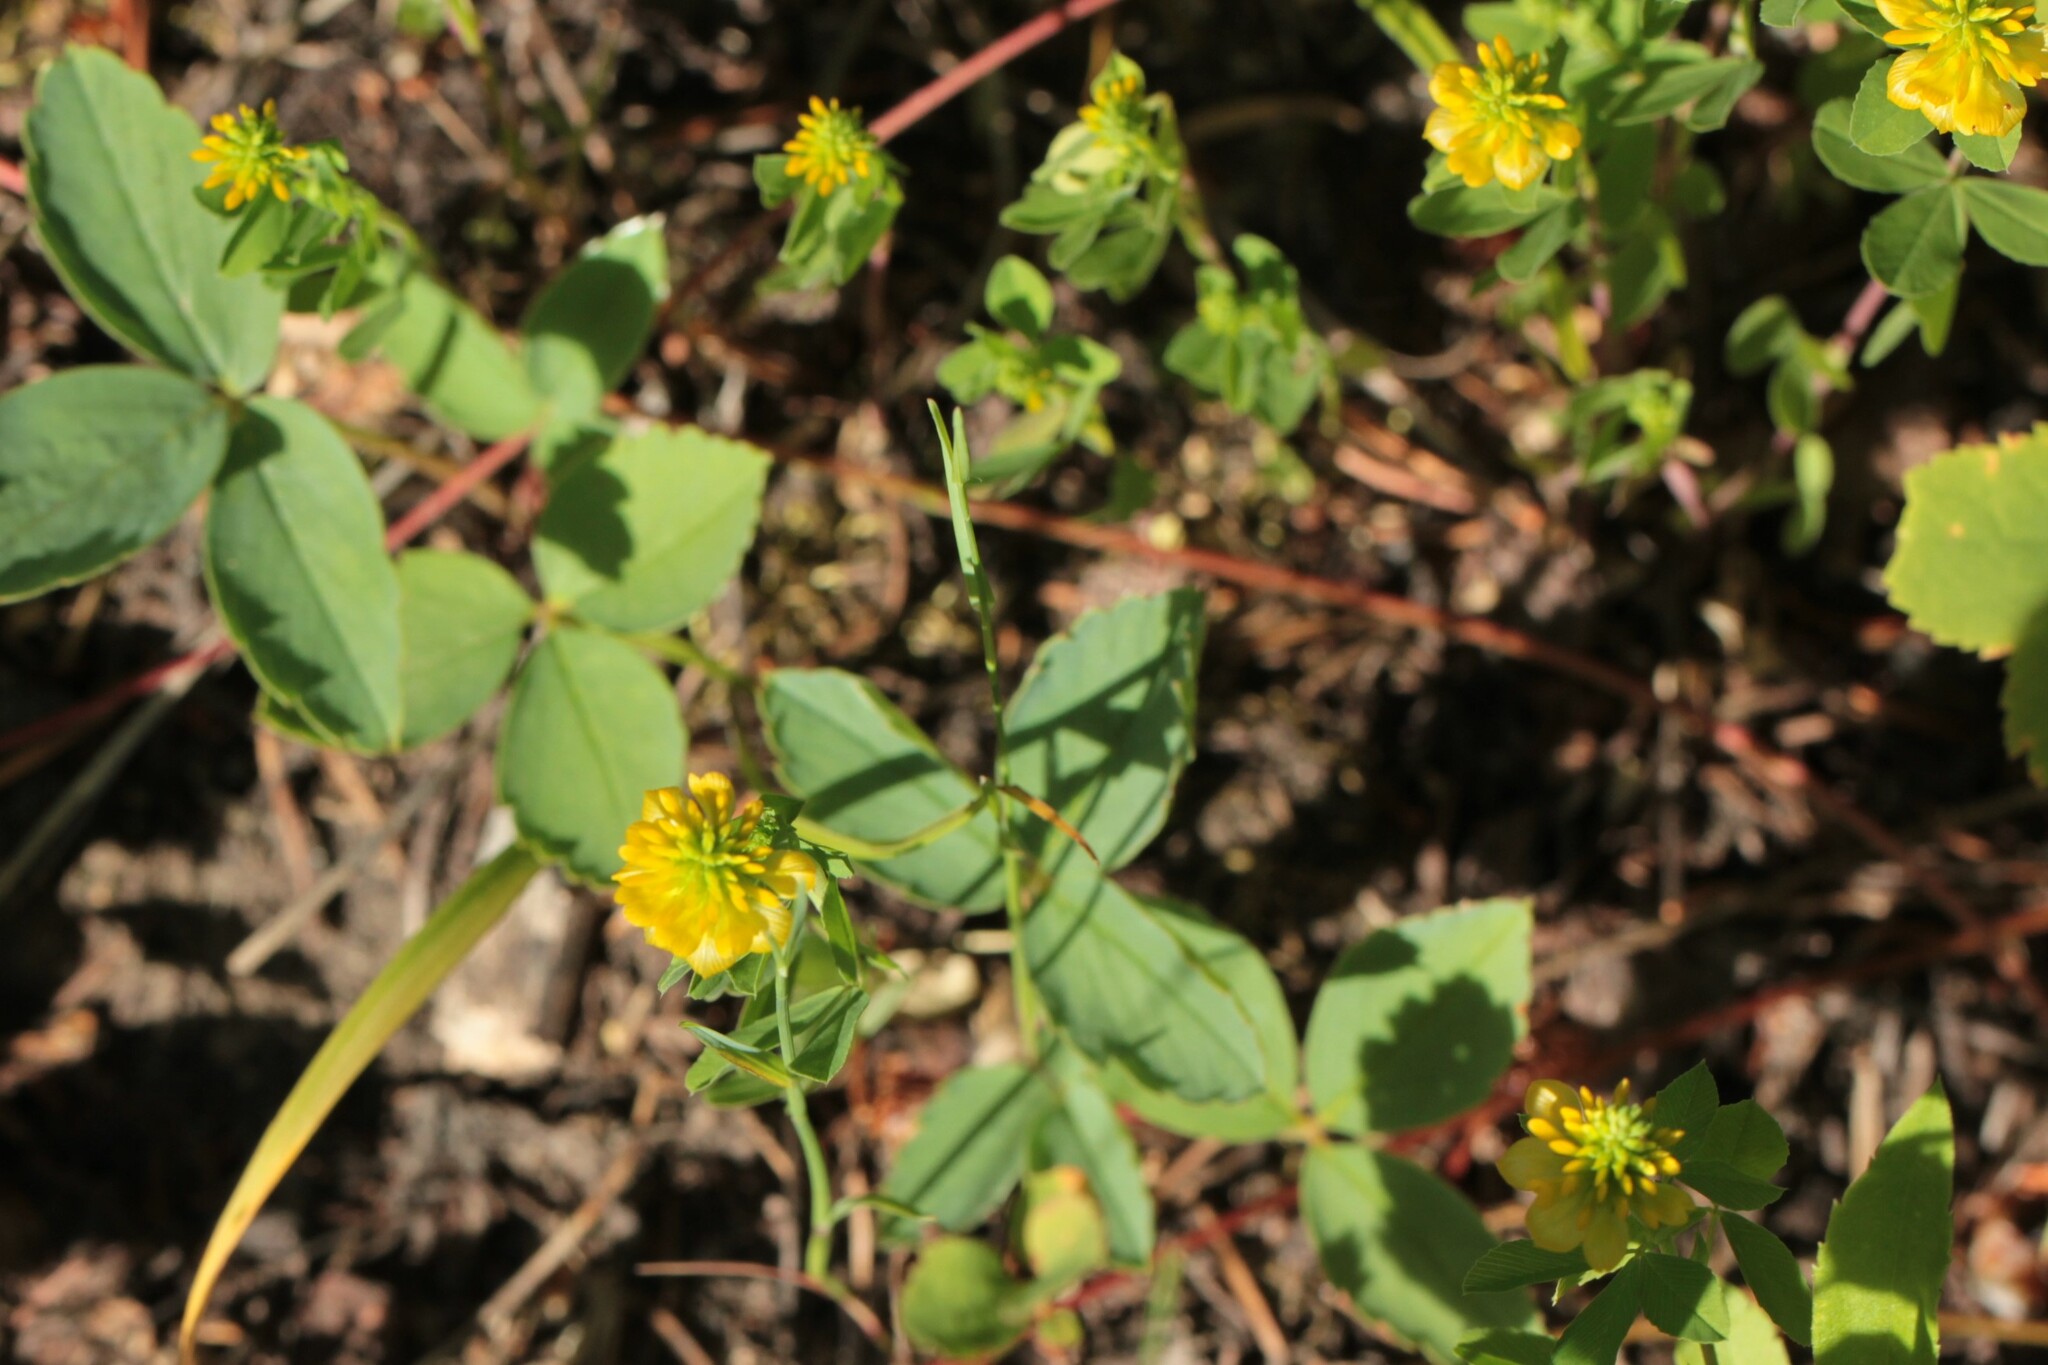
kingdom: Plantae
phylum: Tracheophyta
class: Magnoliopsida
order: Fabales
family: Fabaceae
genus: Trifolium
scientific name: Trifolium aureum
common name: Golden clover
